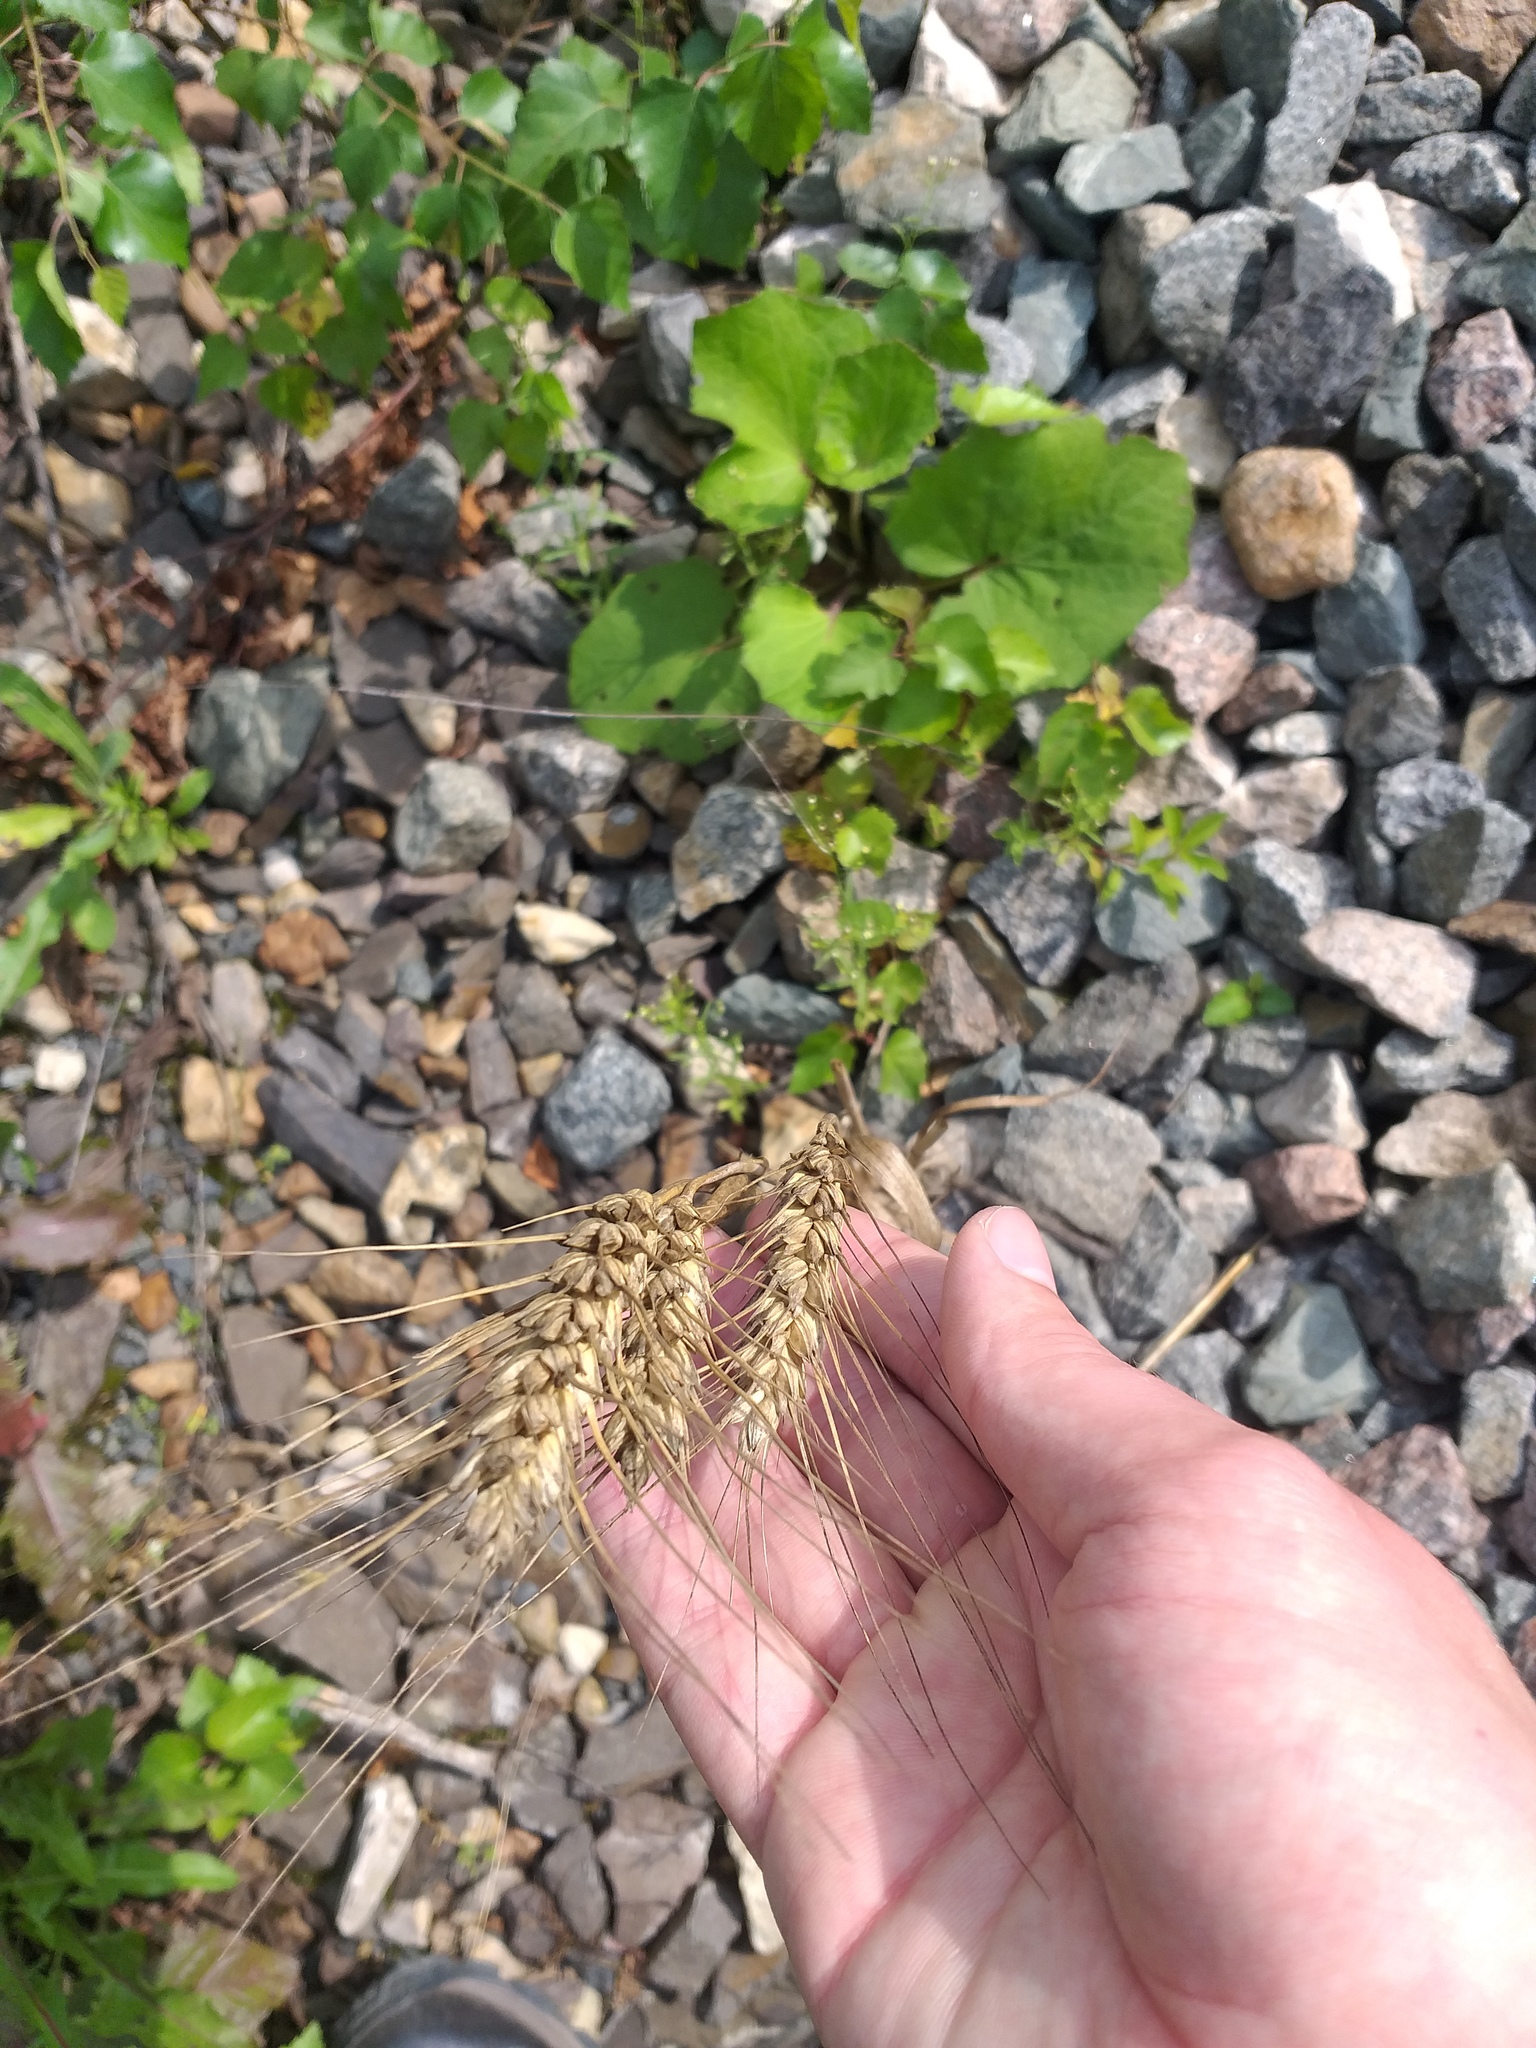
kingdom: Plantae
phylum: Tracheophyta
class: Liliopsida
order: Poales
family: Poaceae
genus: Triticum
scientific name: Triticum aestivum
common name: Common wheat
